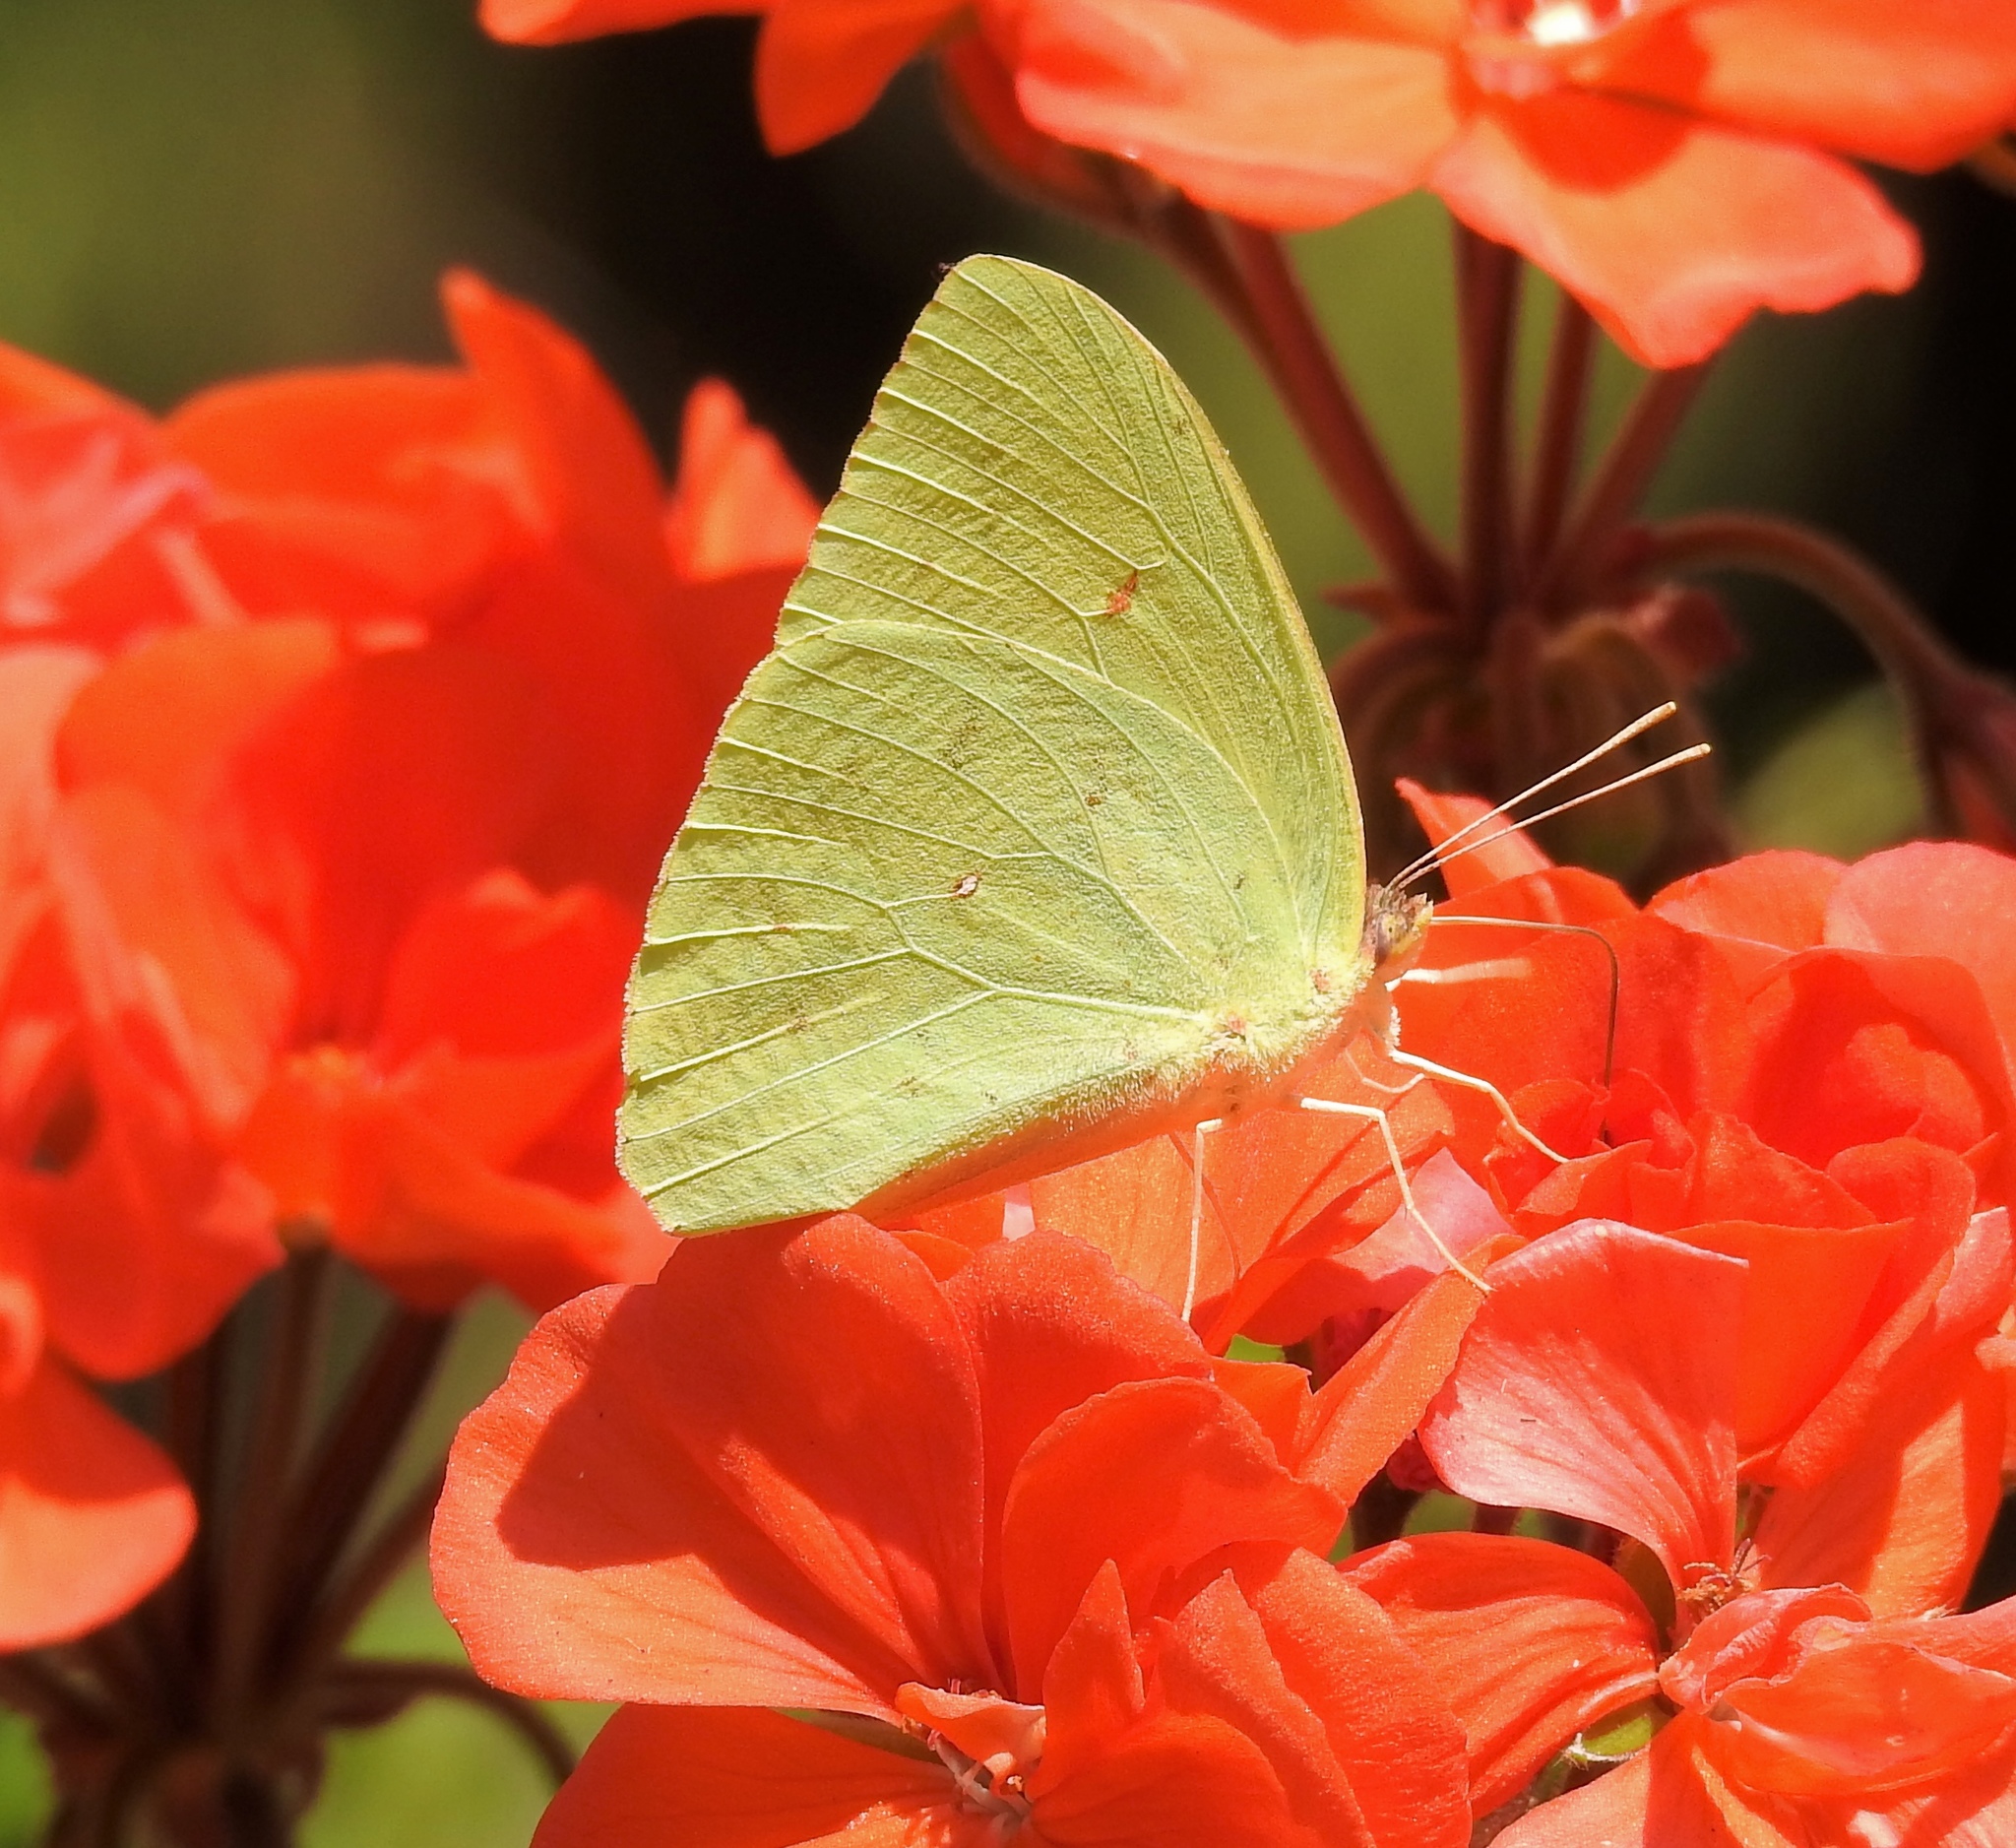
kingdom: Animalia
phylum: Arthropoda
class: Insecta
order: Lepidoptera
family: Pieridae
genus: Phoebis
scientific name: Phoebis sennae
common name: Cloudless sulphur
